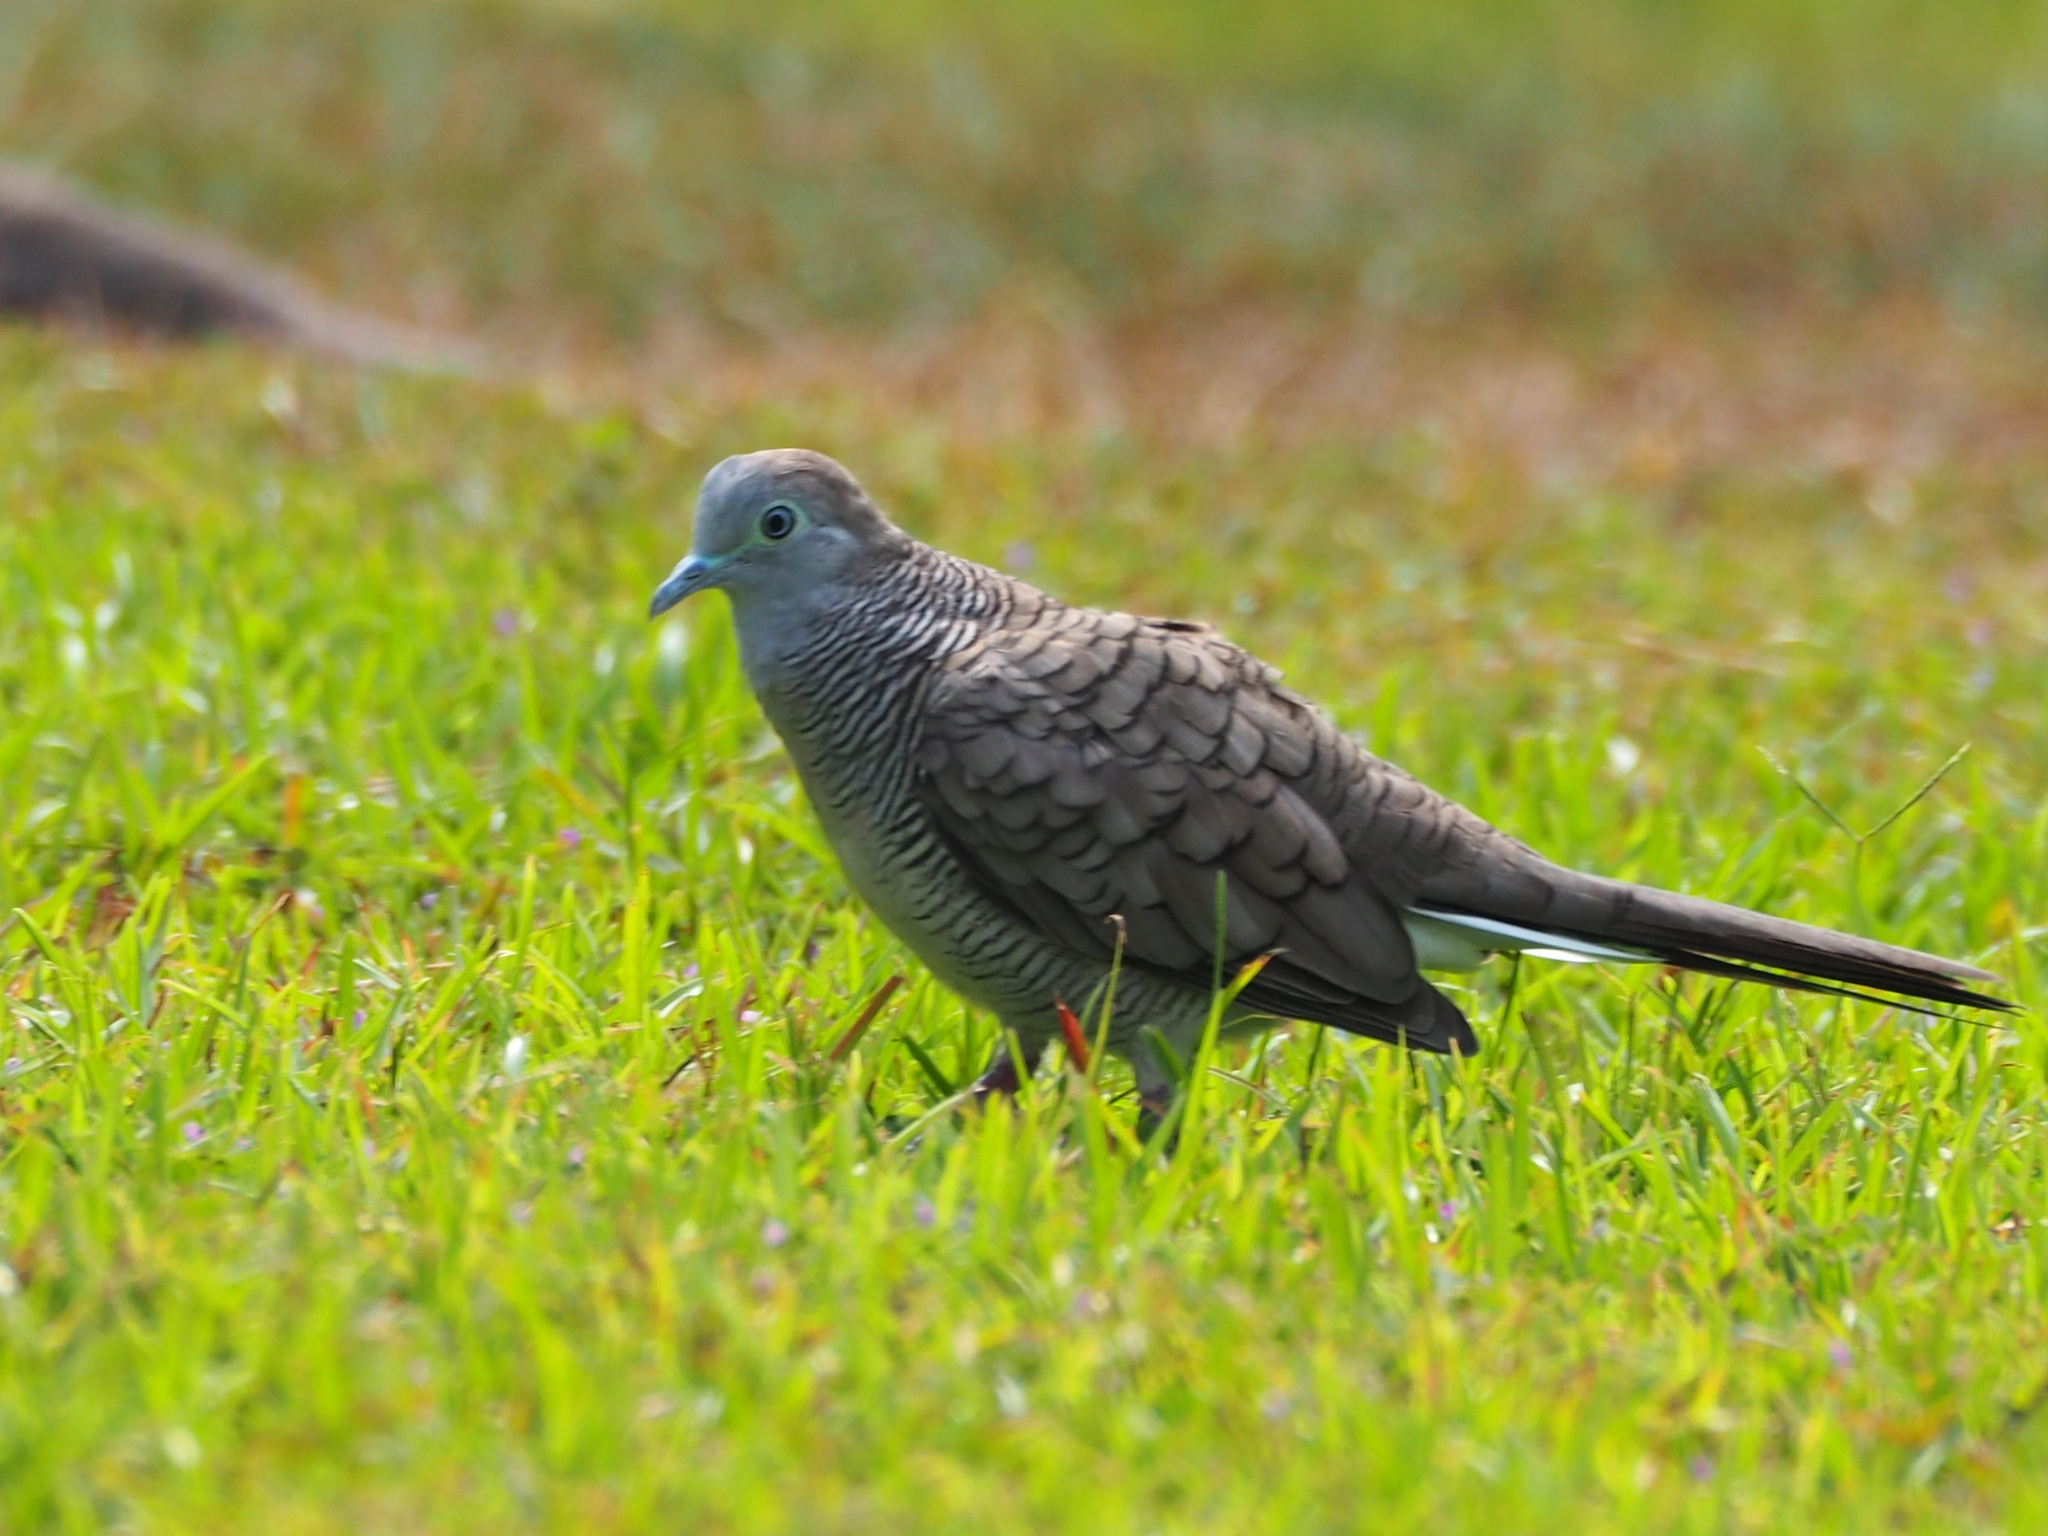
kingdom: Animalia
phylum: Chordata
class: Aves
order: Columbiformes
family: Columbidae
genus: Geopelia
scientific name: Geopelia striata
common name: Zebra dove
